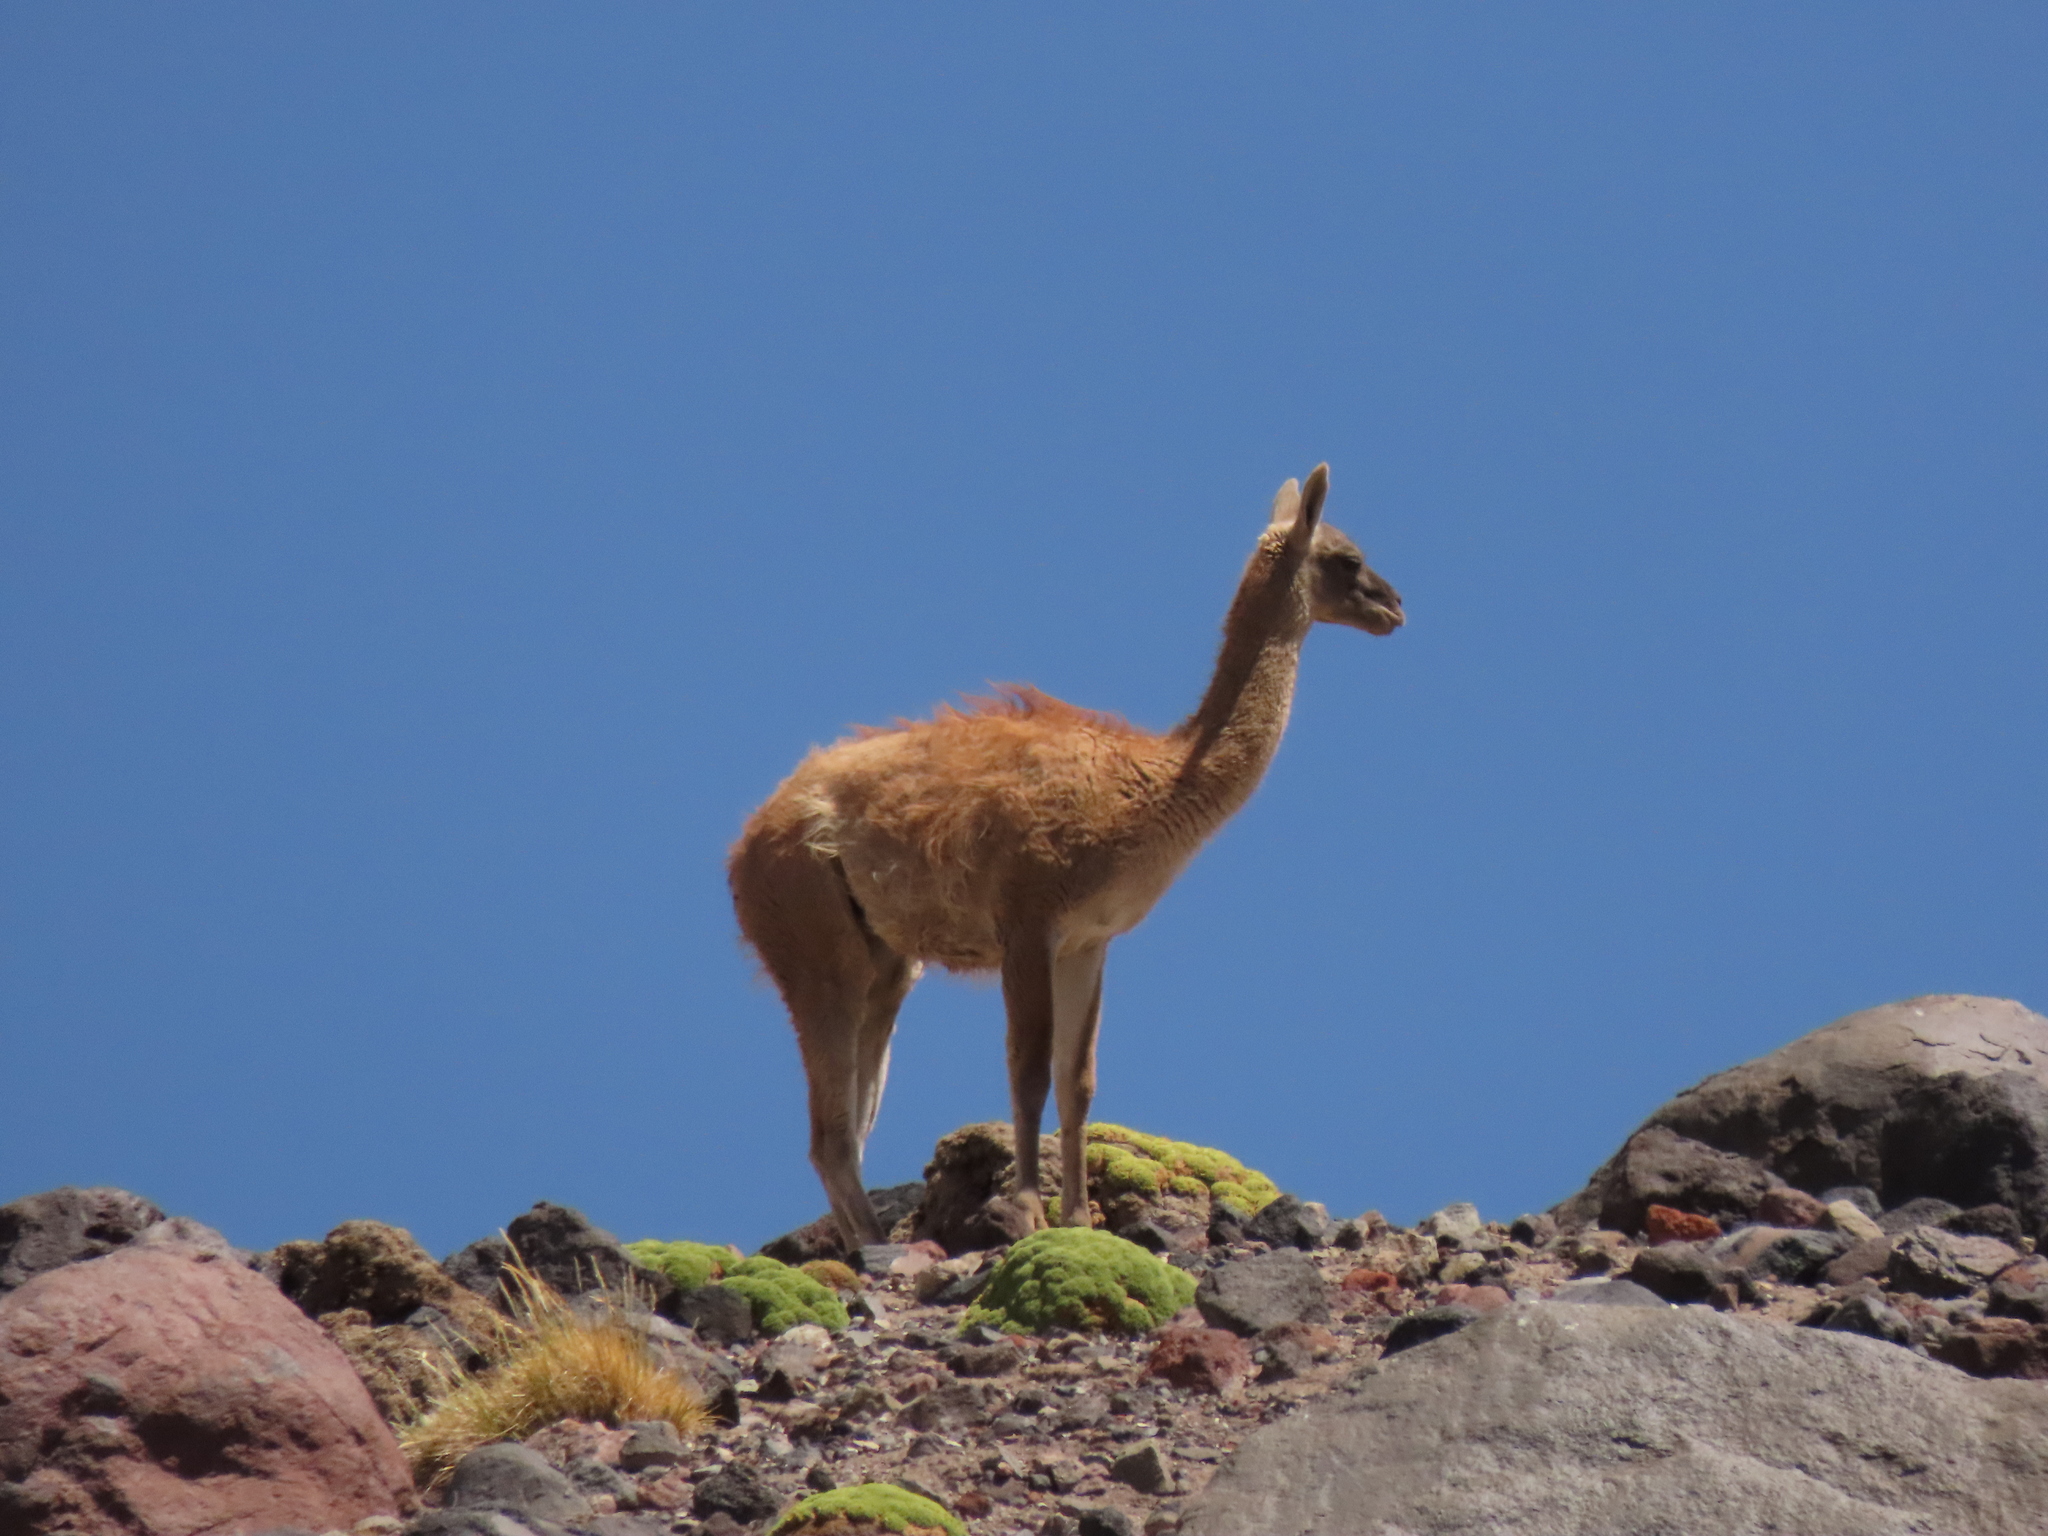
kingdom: Animalia
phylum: Chordata
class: Mammalia
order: Artiodactyla
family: Camelidae
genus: Lama
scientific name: Lama glama
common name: Llama
